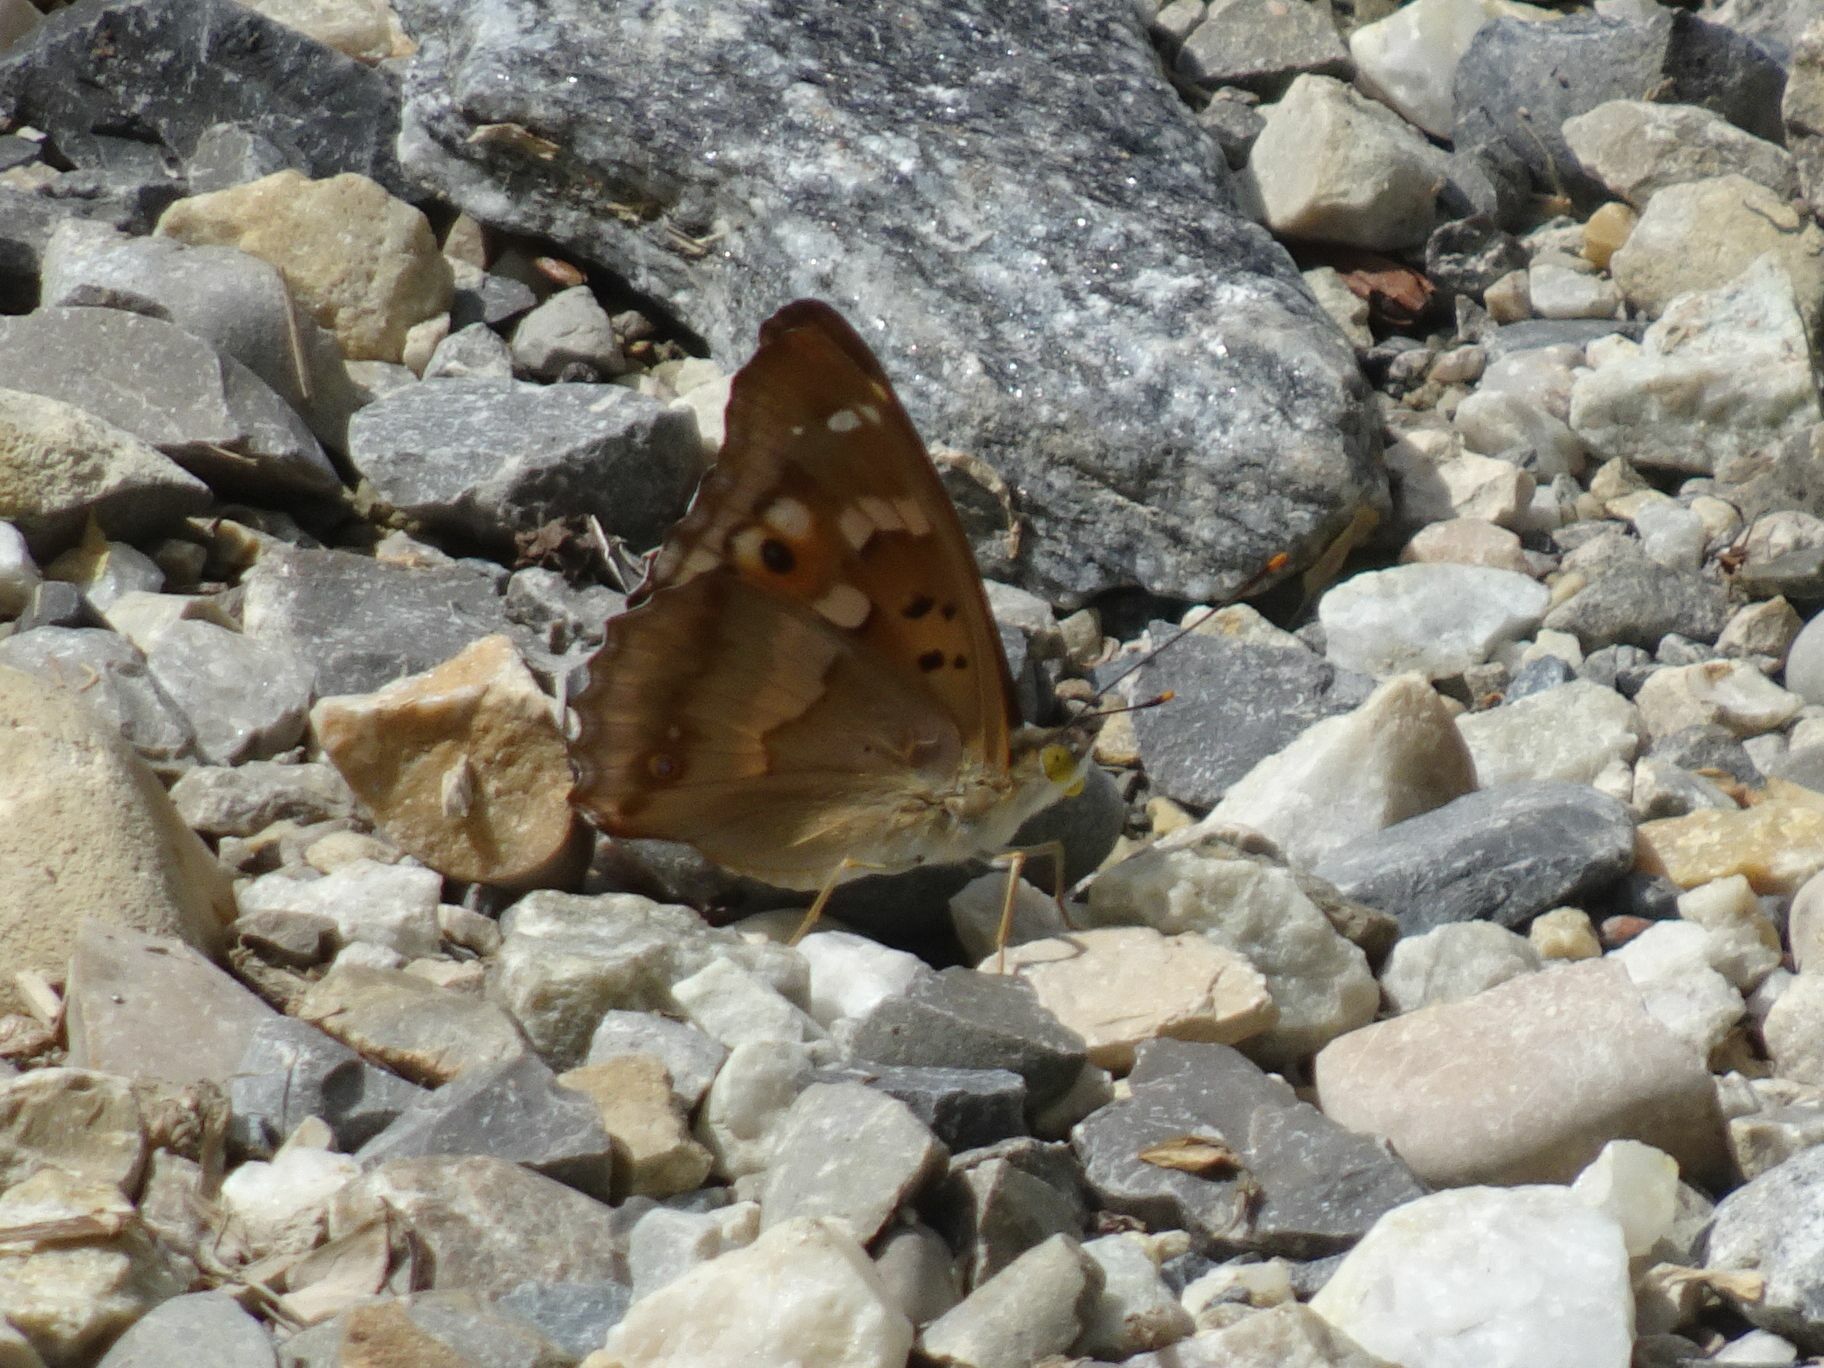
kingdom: Animalia
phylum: Arthropoda
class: Insecta
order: Lepidoptera
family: Nymphalidae
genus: Apatura
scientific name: Apatura ilia
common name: Lesser purple emperor
